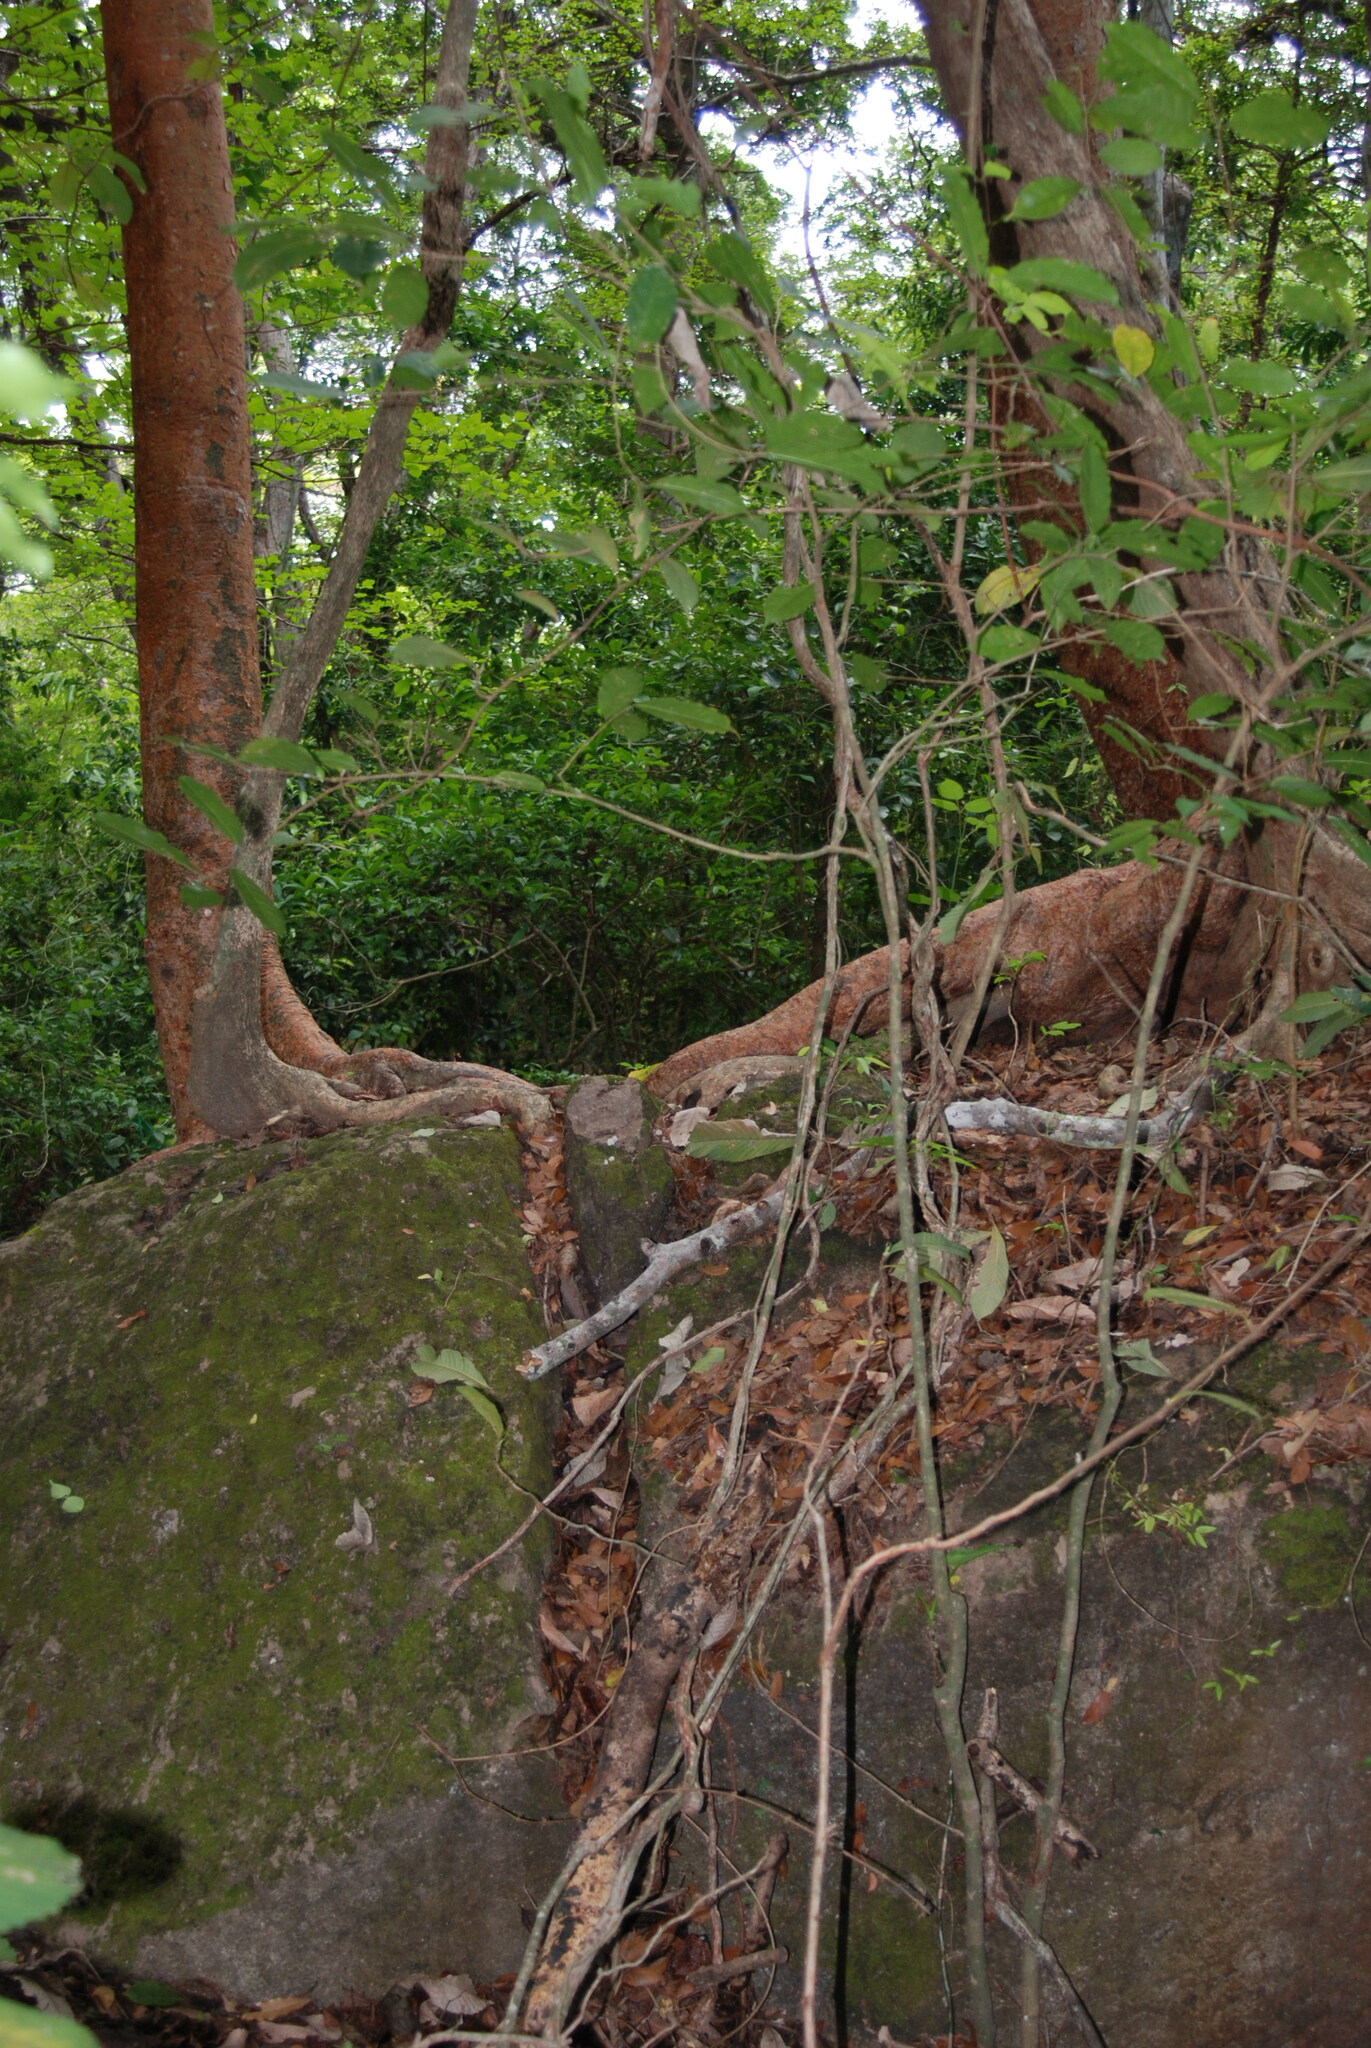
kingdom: Plantae
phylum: Tracheophyta
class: Magnoliopsida
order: Sapindales
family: Burseraceae
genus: Bursera
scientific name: Bursera simaruba
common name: Turpentine tree
